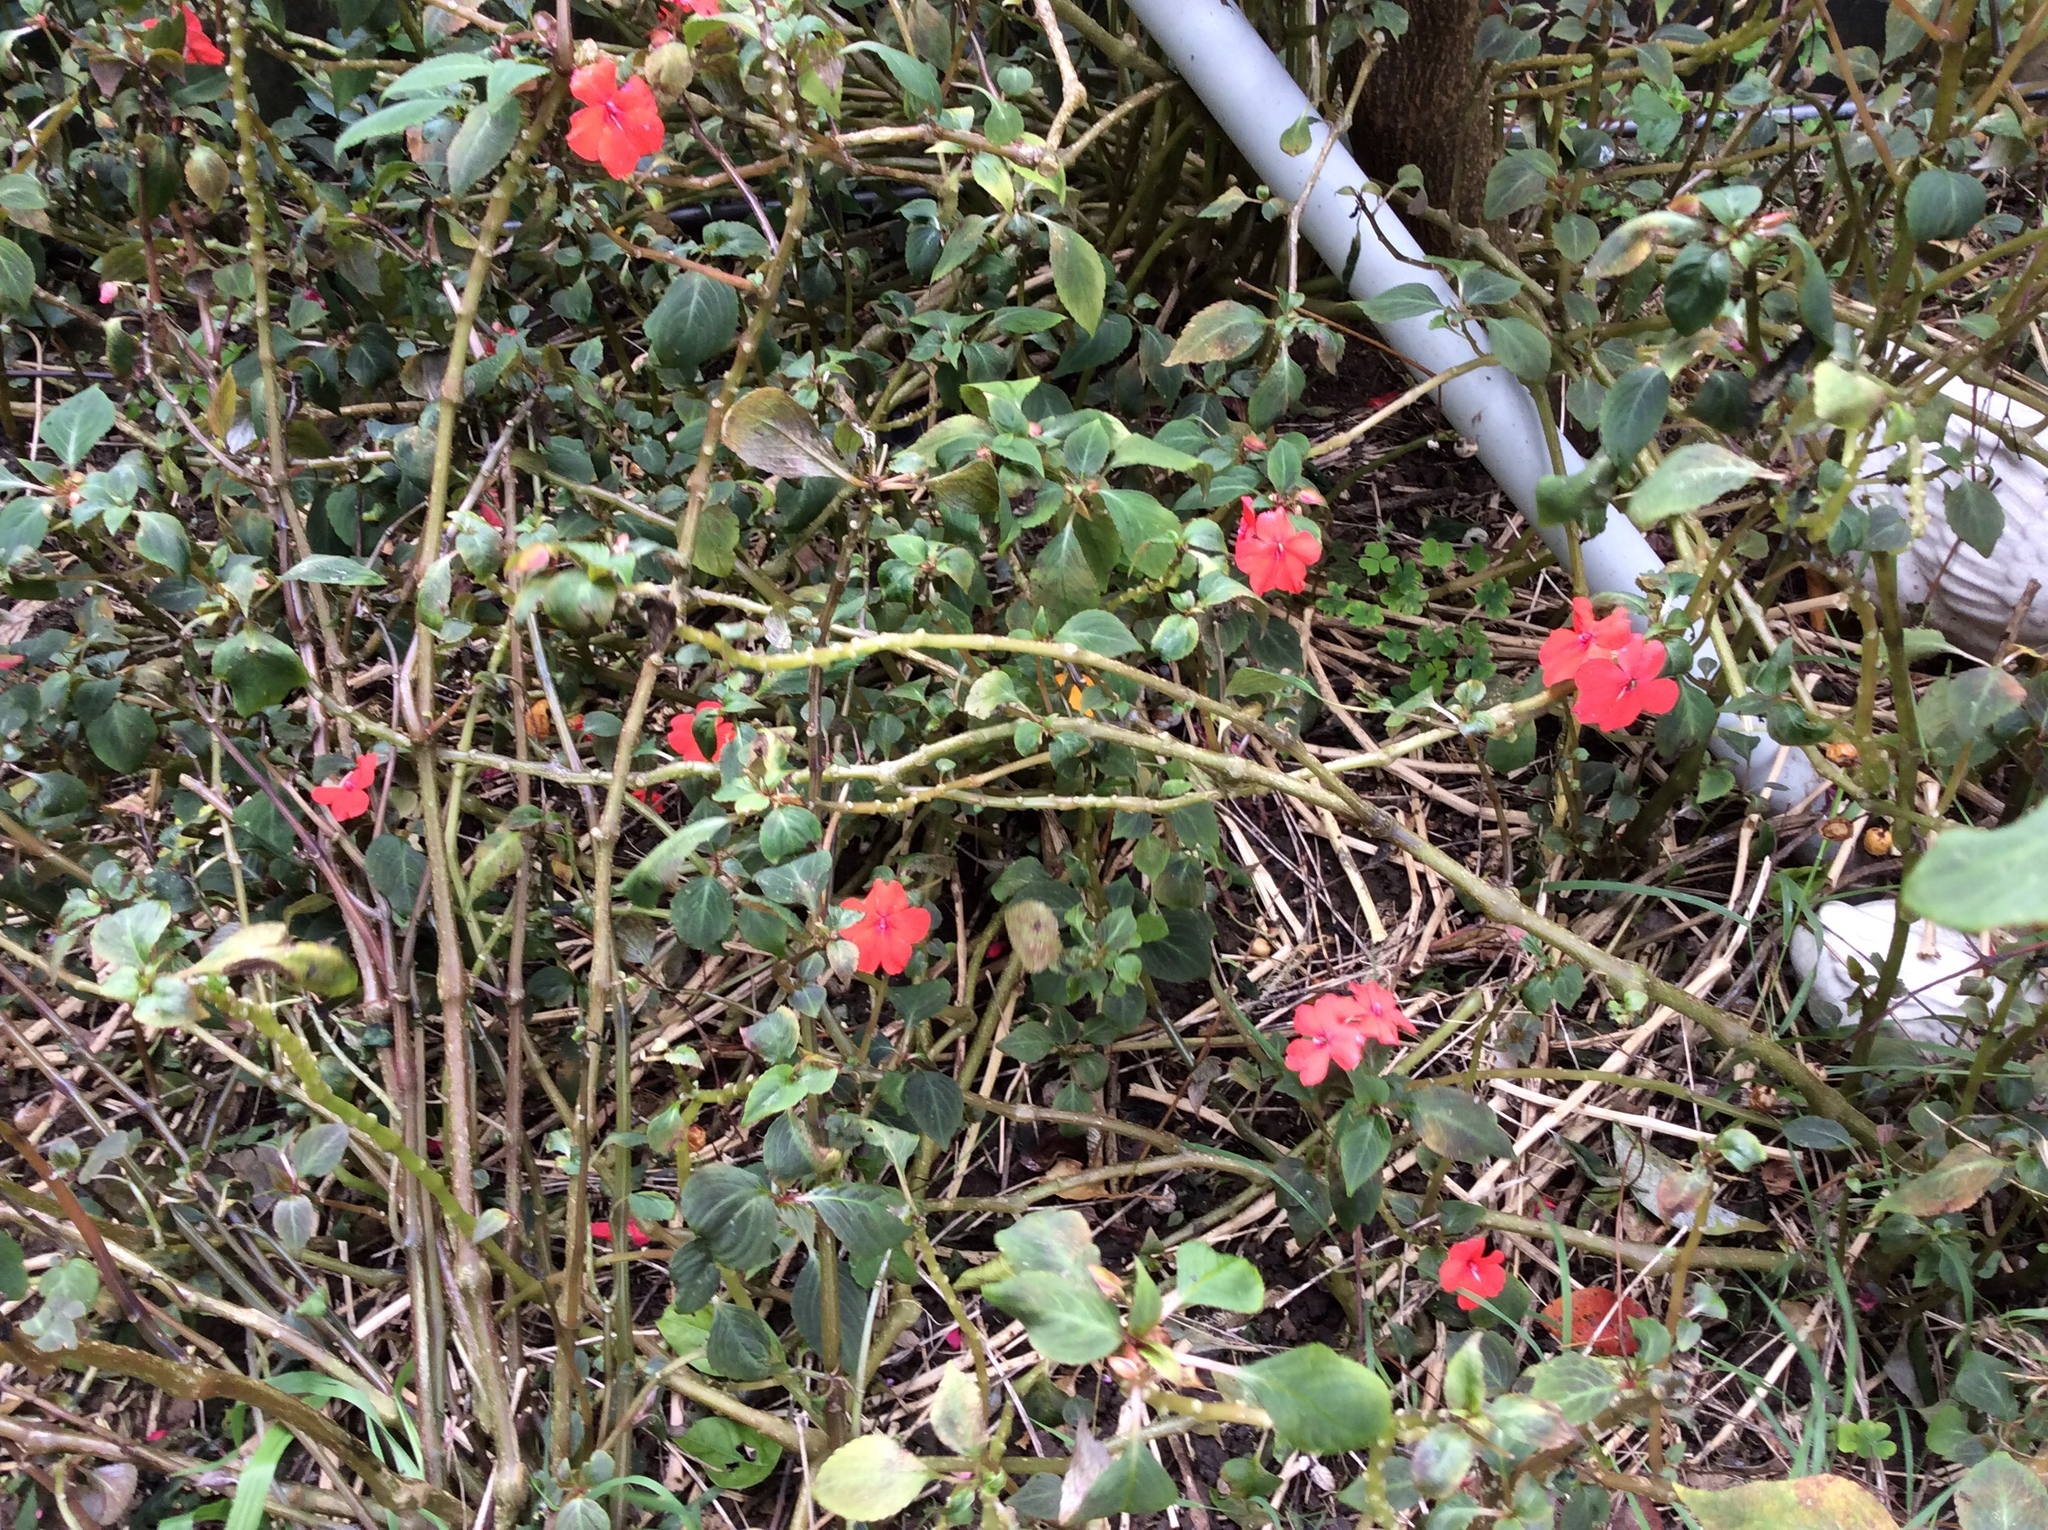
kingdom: Plantae
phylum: Tracheophyta
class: Magnoliopsida
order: Ericales
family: Balsaminaceae
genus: Impatiens
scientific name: Impatiens walleriana
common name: Buzzy lizzy
